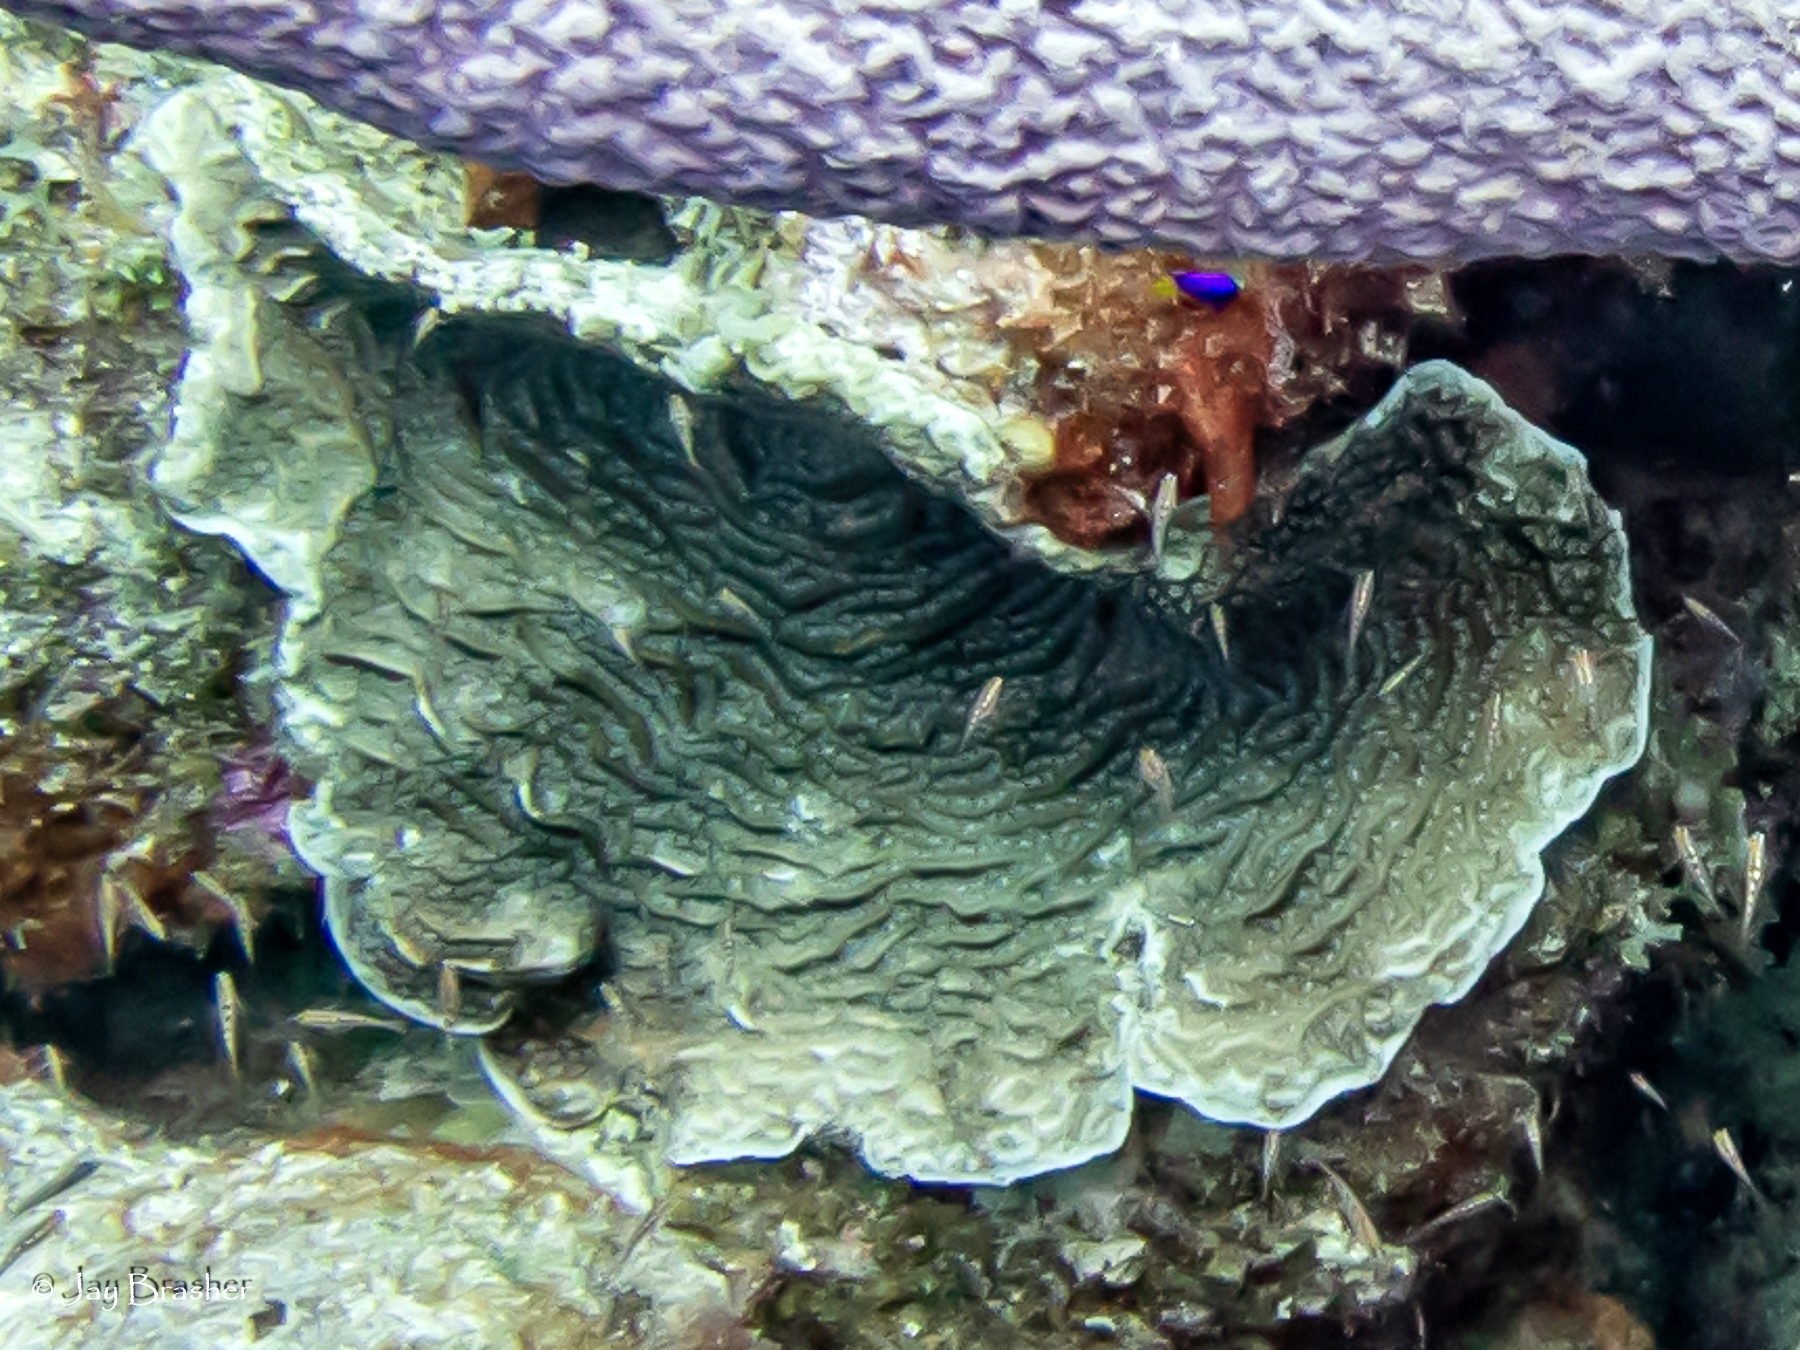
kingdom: Animalia
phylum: Cnidaria
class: Anthozoa
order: Scleractinia
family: Agariciidae
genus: Agaricia
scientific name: Agaricia lamarcki
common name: Lamarck's sheet coral
